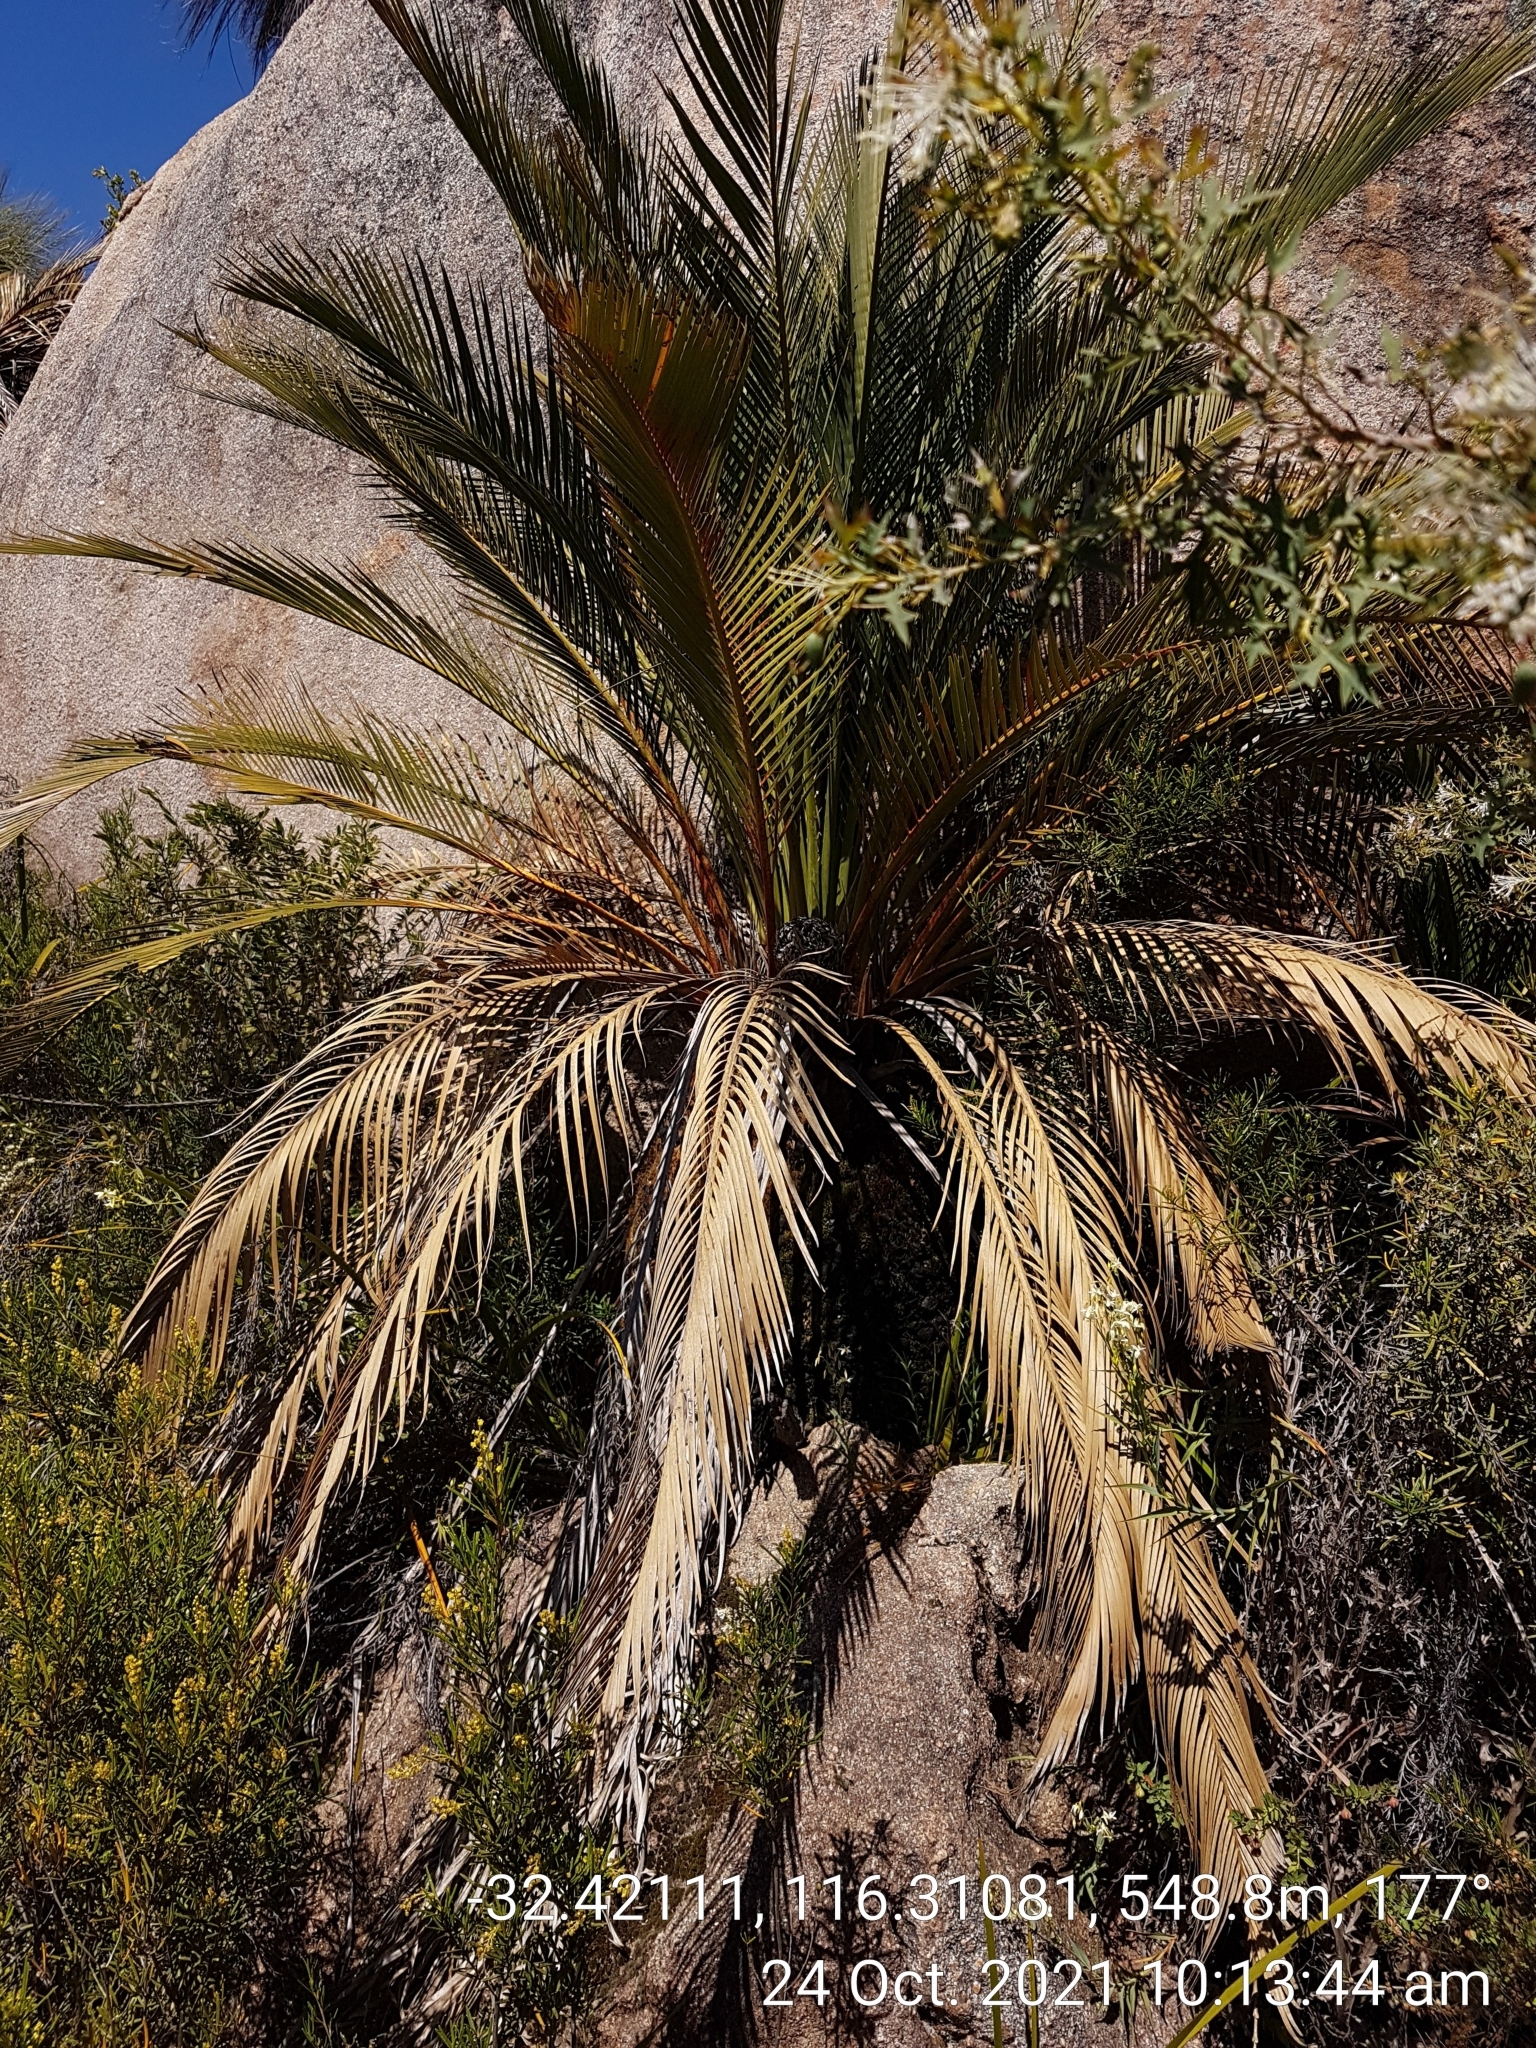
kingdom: Plantae
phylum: Tracheophyta
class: Cycadopsida
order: Cycadales
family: Zamiaceae
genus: Macrozamia
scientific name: Macrozamia riedlei
